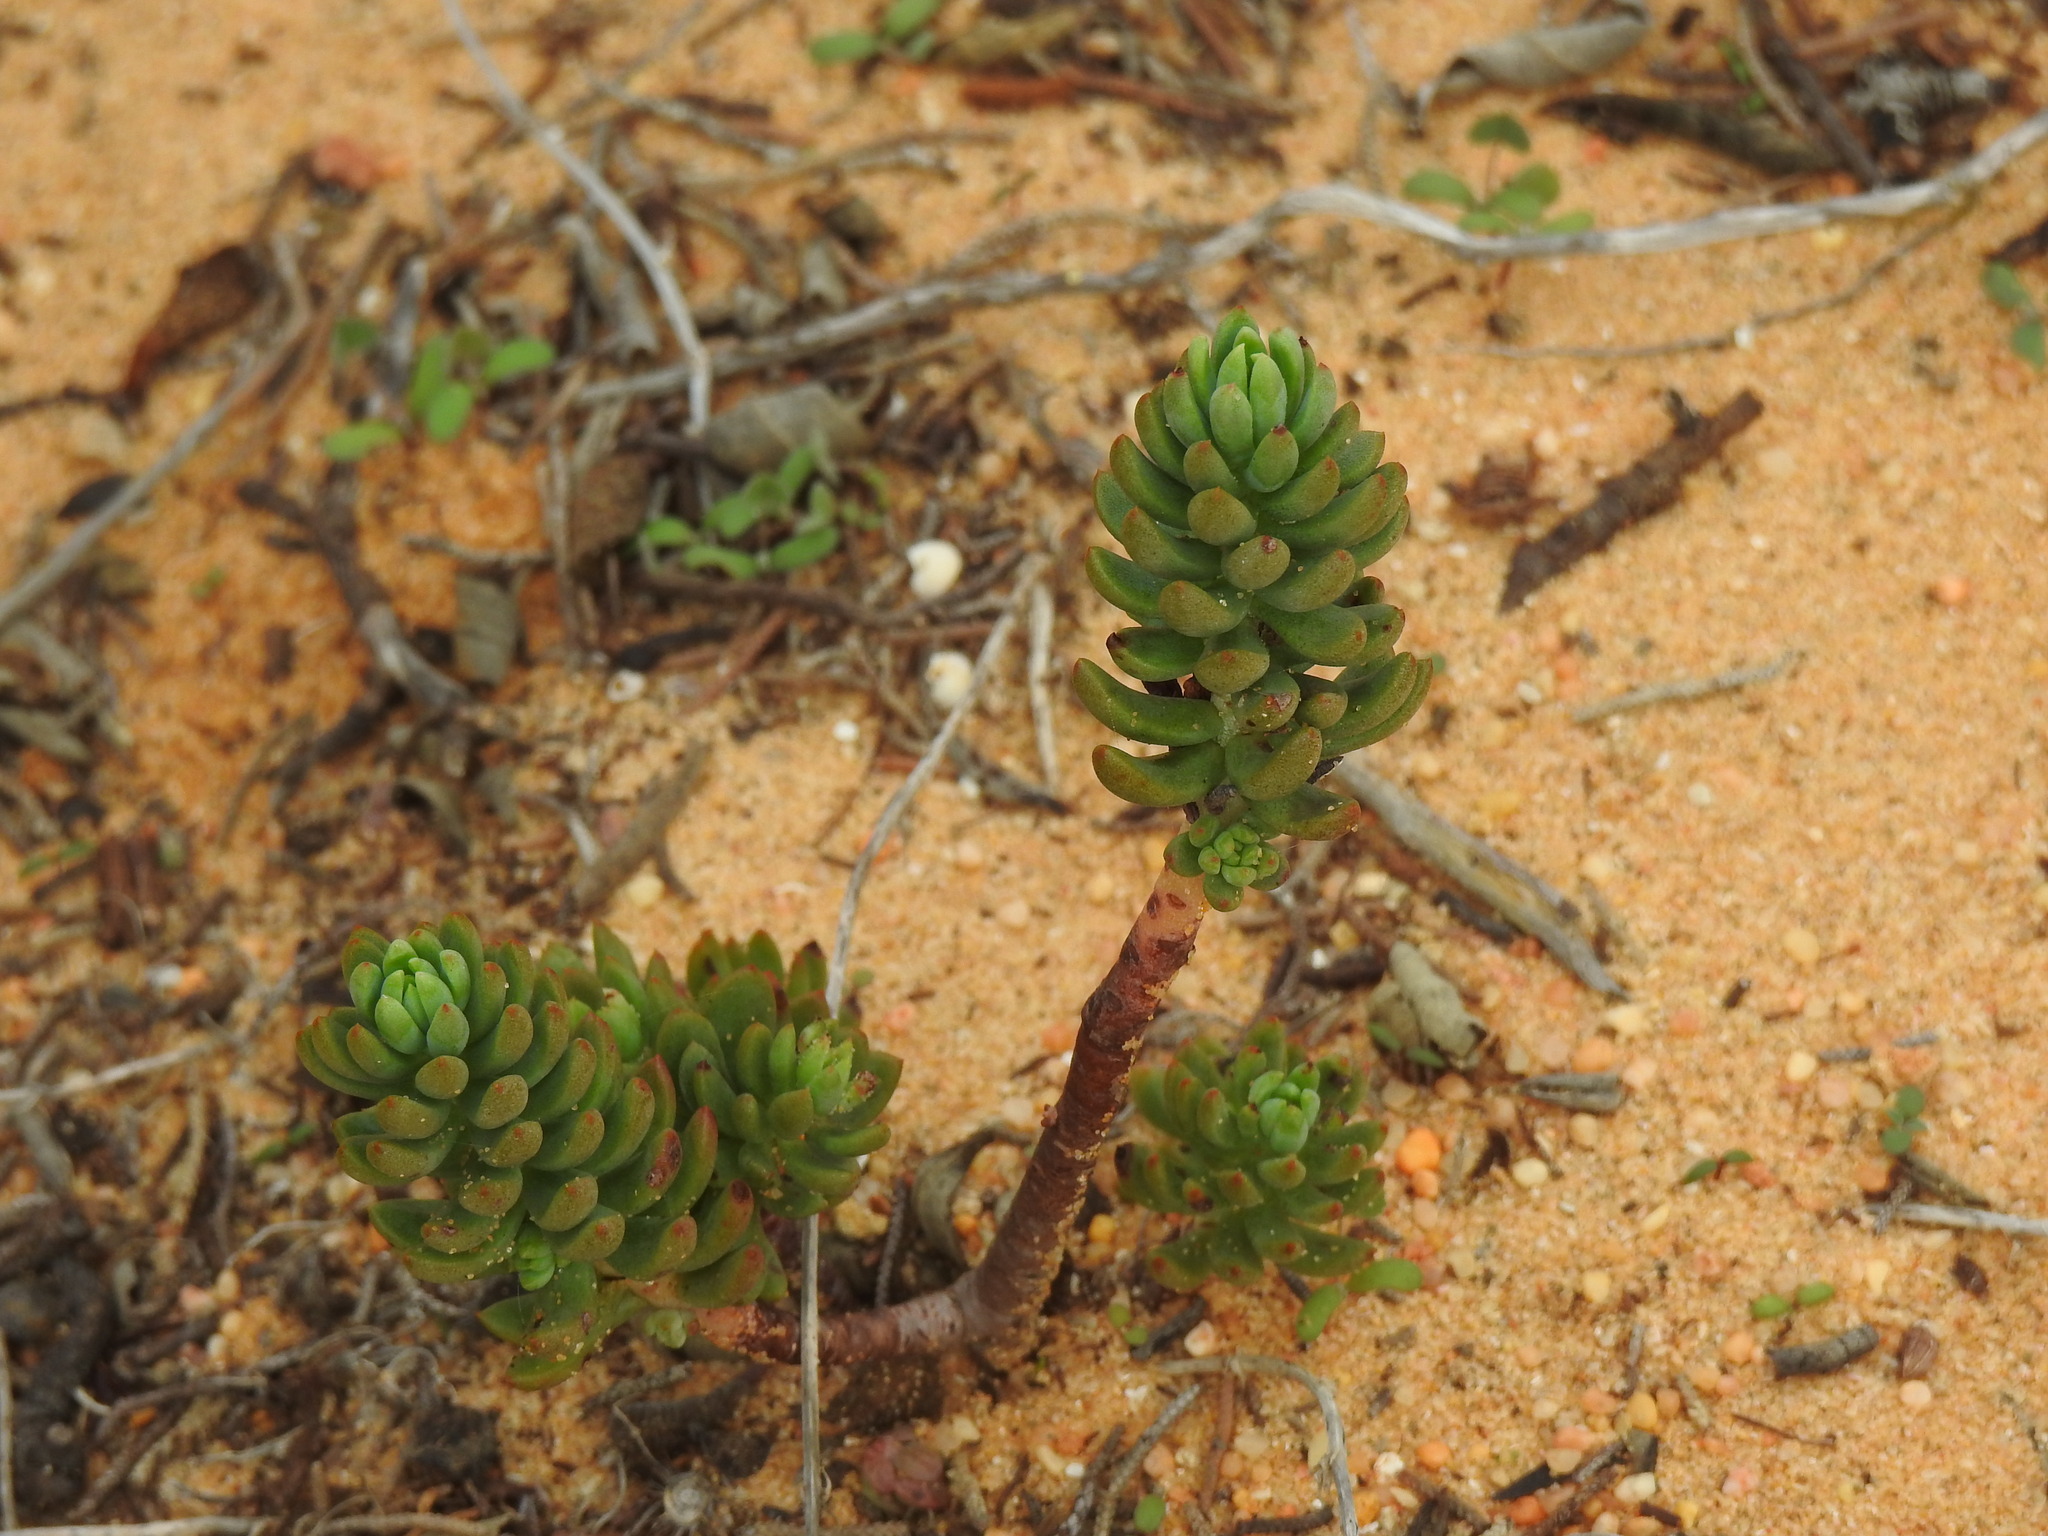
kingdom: Plantae
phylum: Tracheophyta
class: Magnoliopsida
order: Saxifragales
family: Crassulaceae
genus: Petrosedum
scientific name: Petrosedum sediforme
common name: Pale stonecrop
